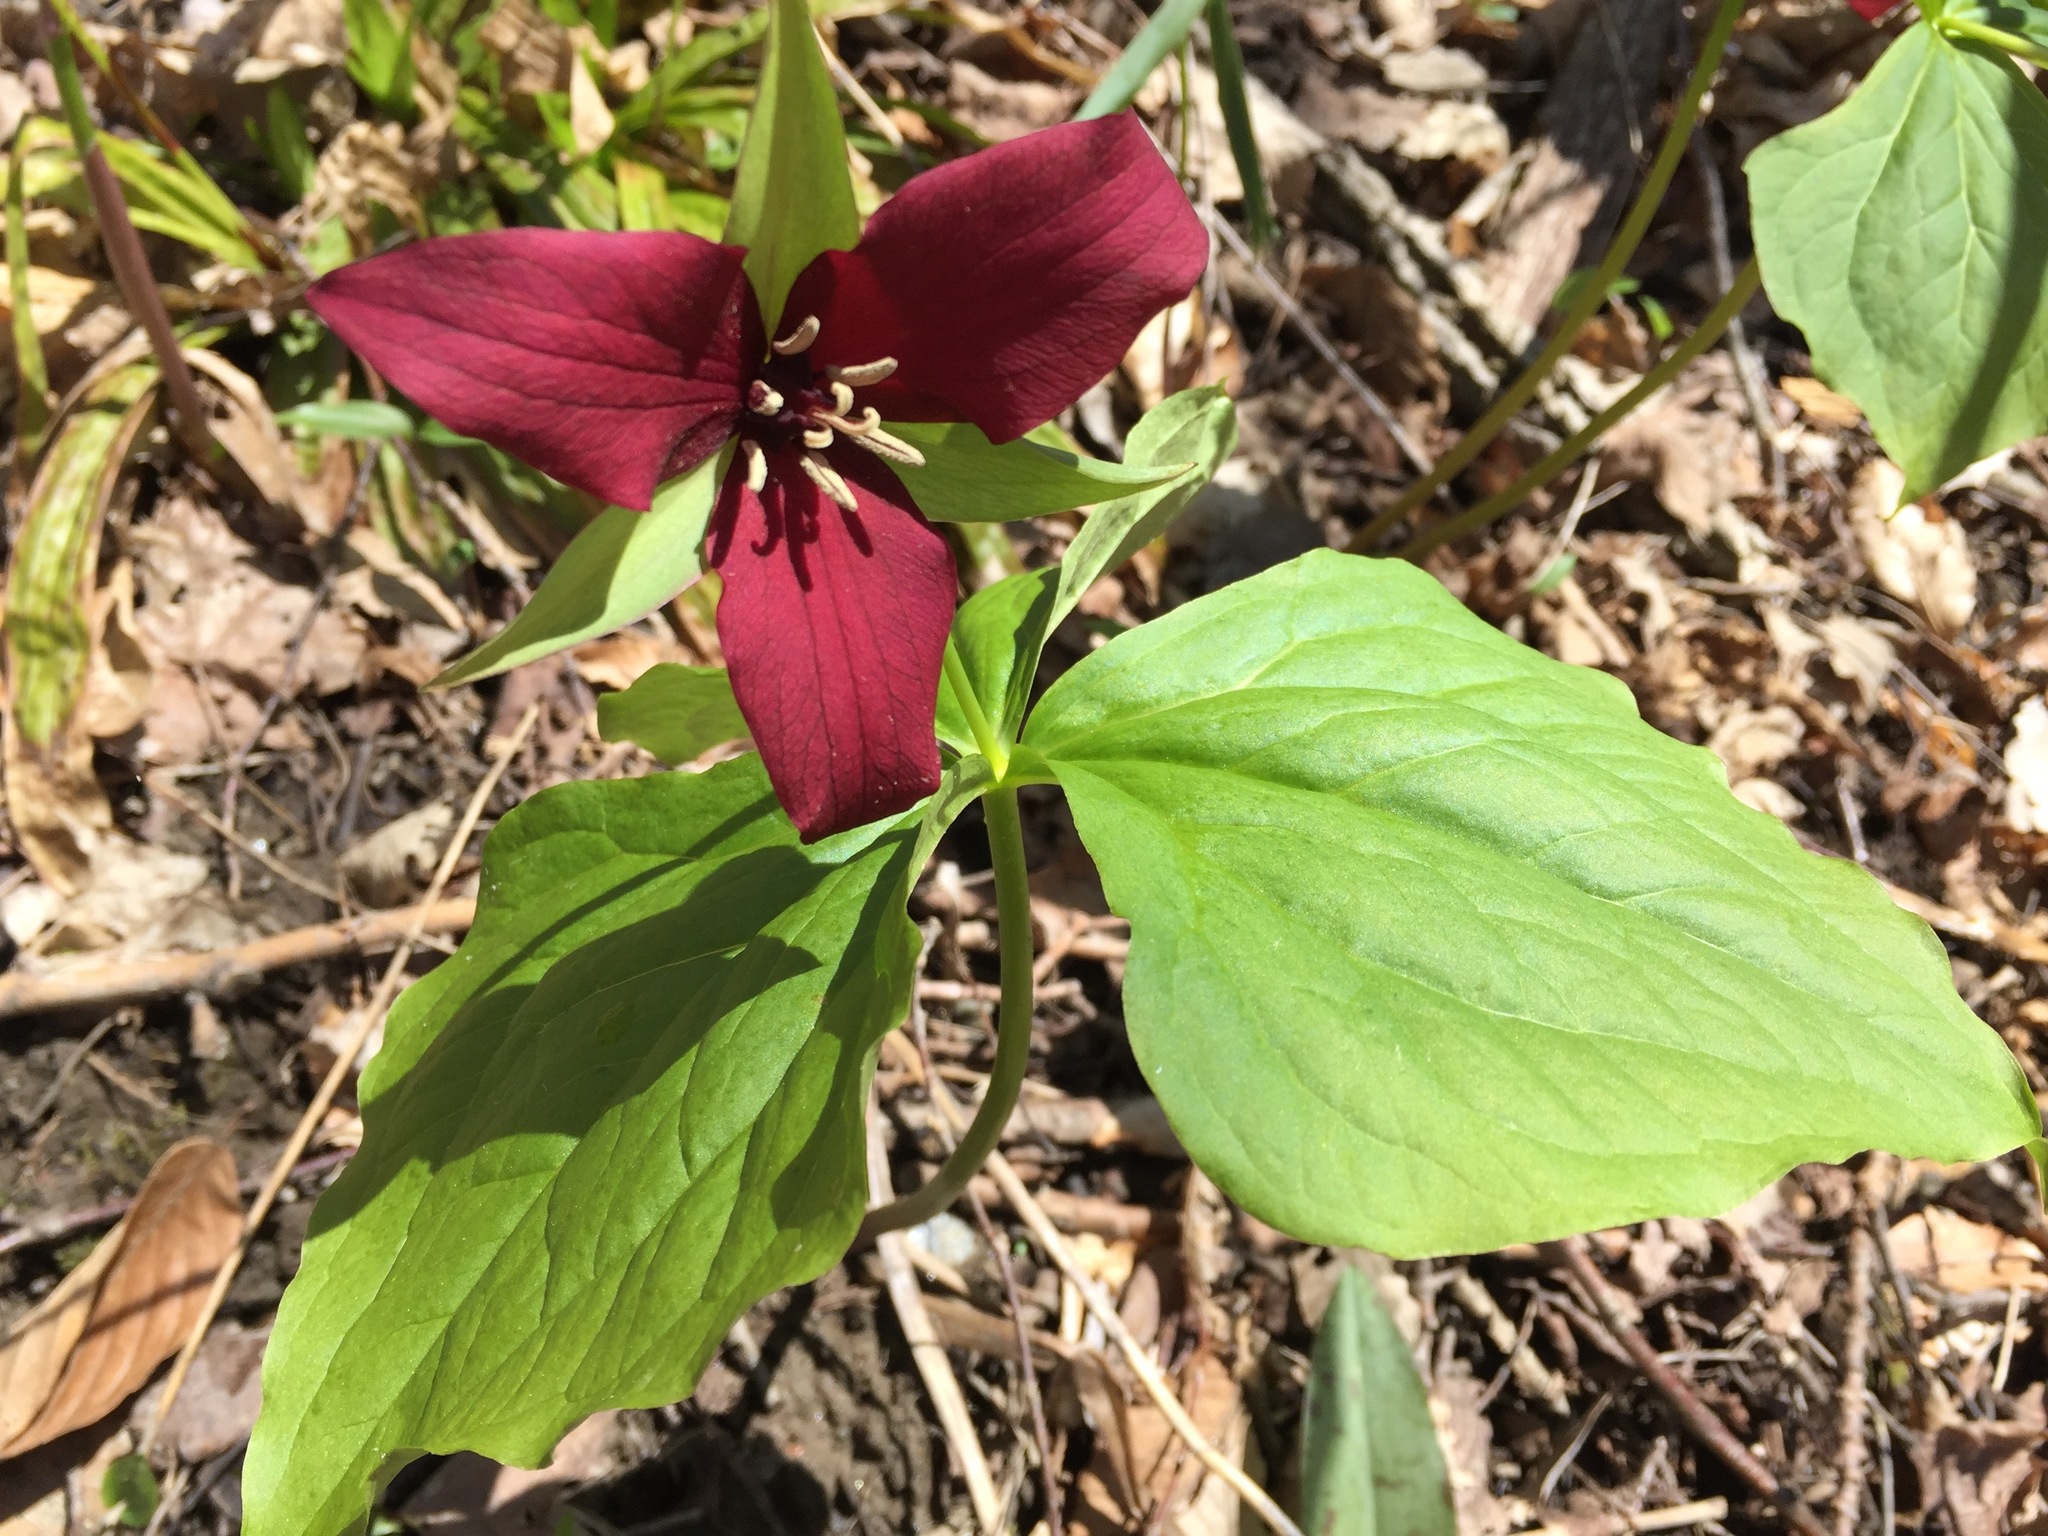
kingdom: Plantae
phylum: Tracheophyta
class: Liliopsida
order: Liliales
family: Melanthiaceae
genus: Trillium
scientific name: Trillium erectum
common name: Purple trillium
